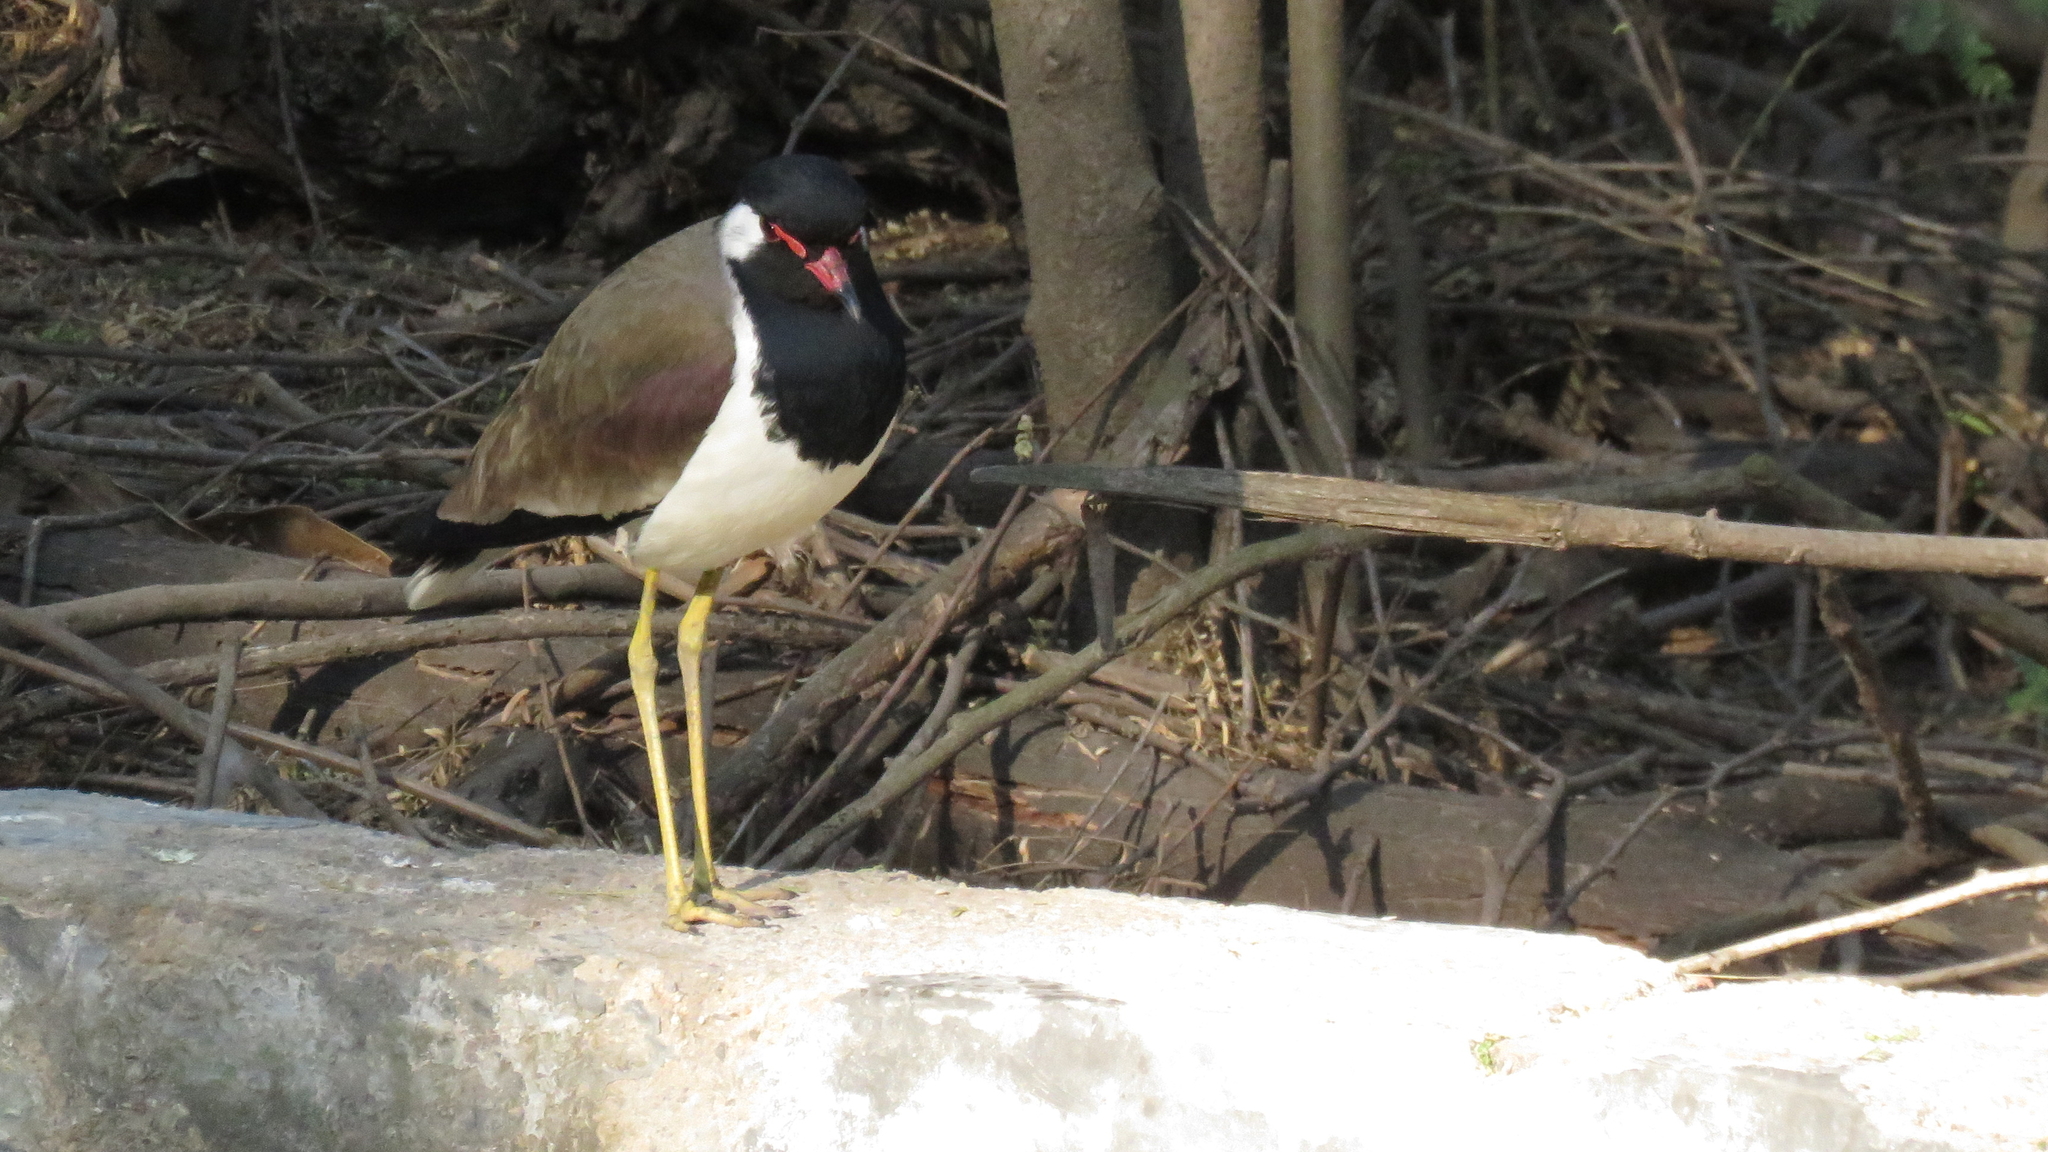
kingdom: Animalia
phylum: Chordata
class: Aves
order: Charadriiformes
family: Charadriidae
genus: Vanellus
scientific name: Vanellus indicus
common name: Red-wattled lapwing
